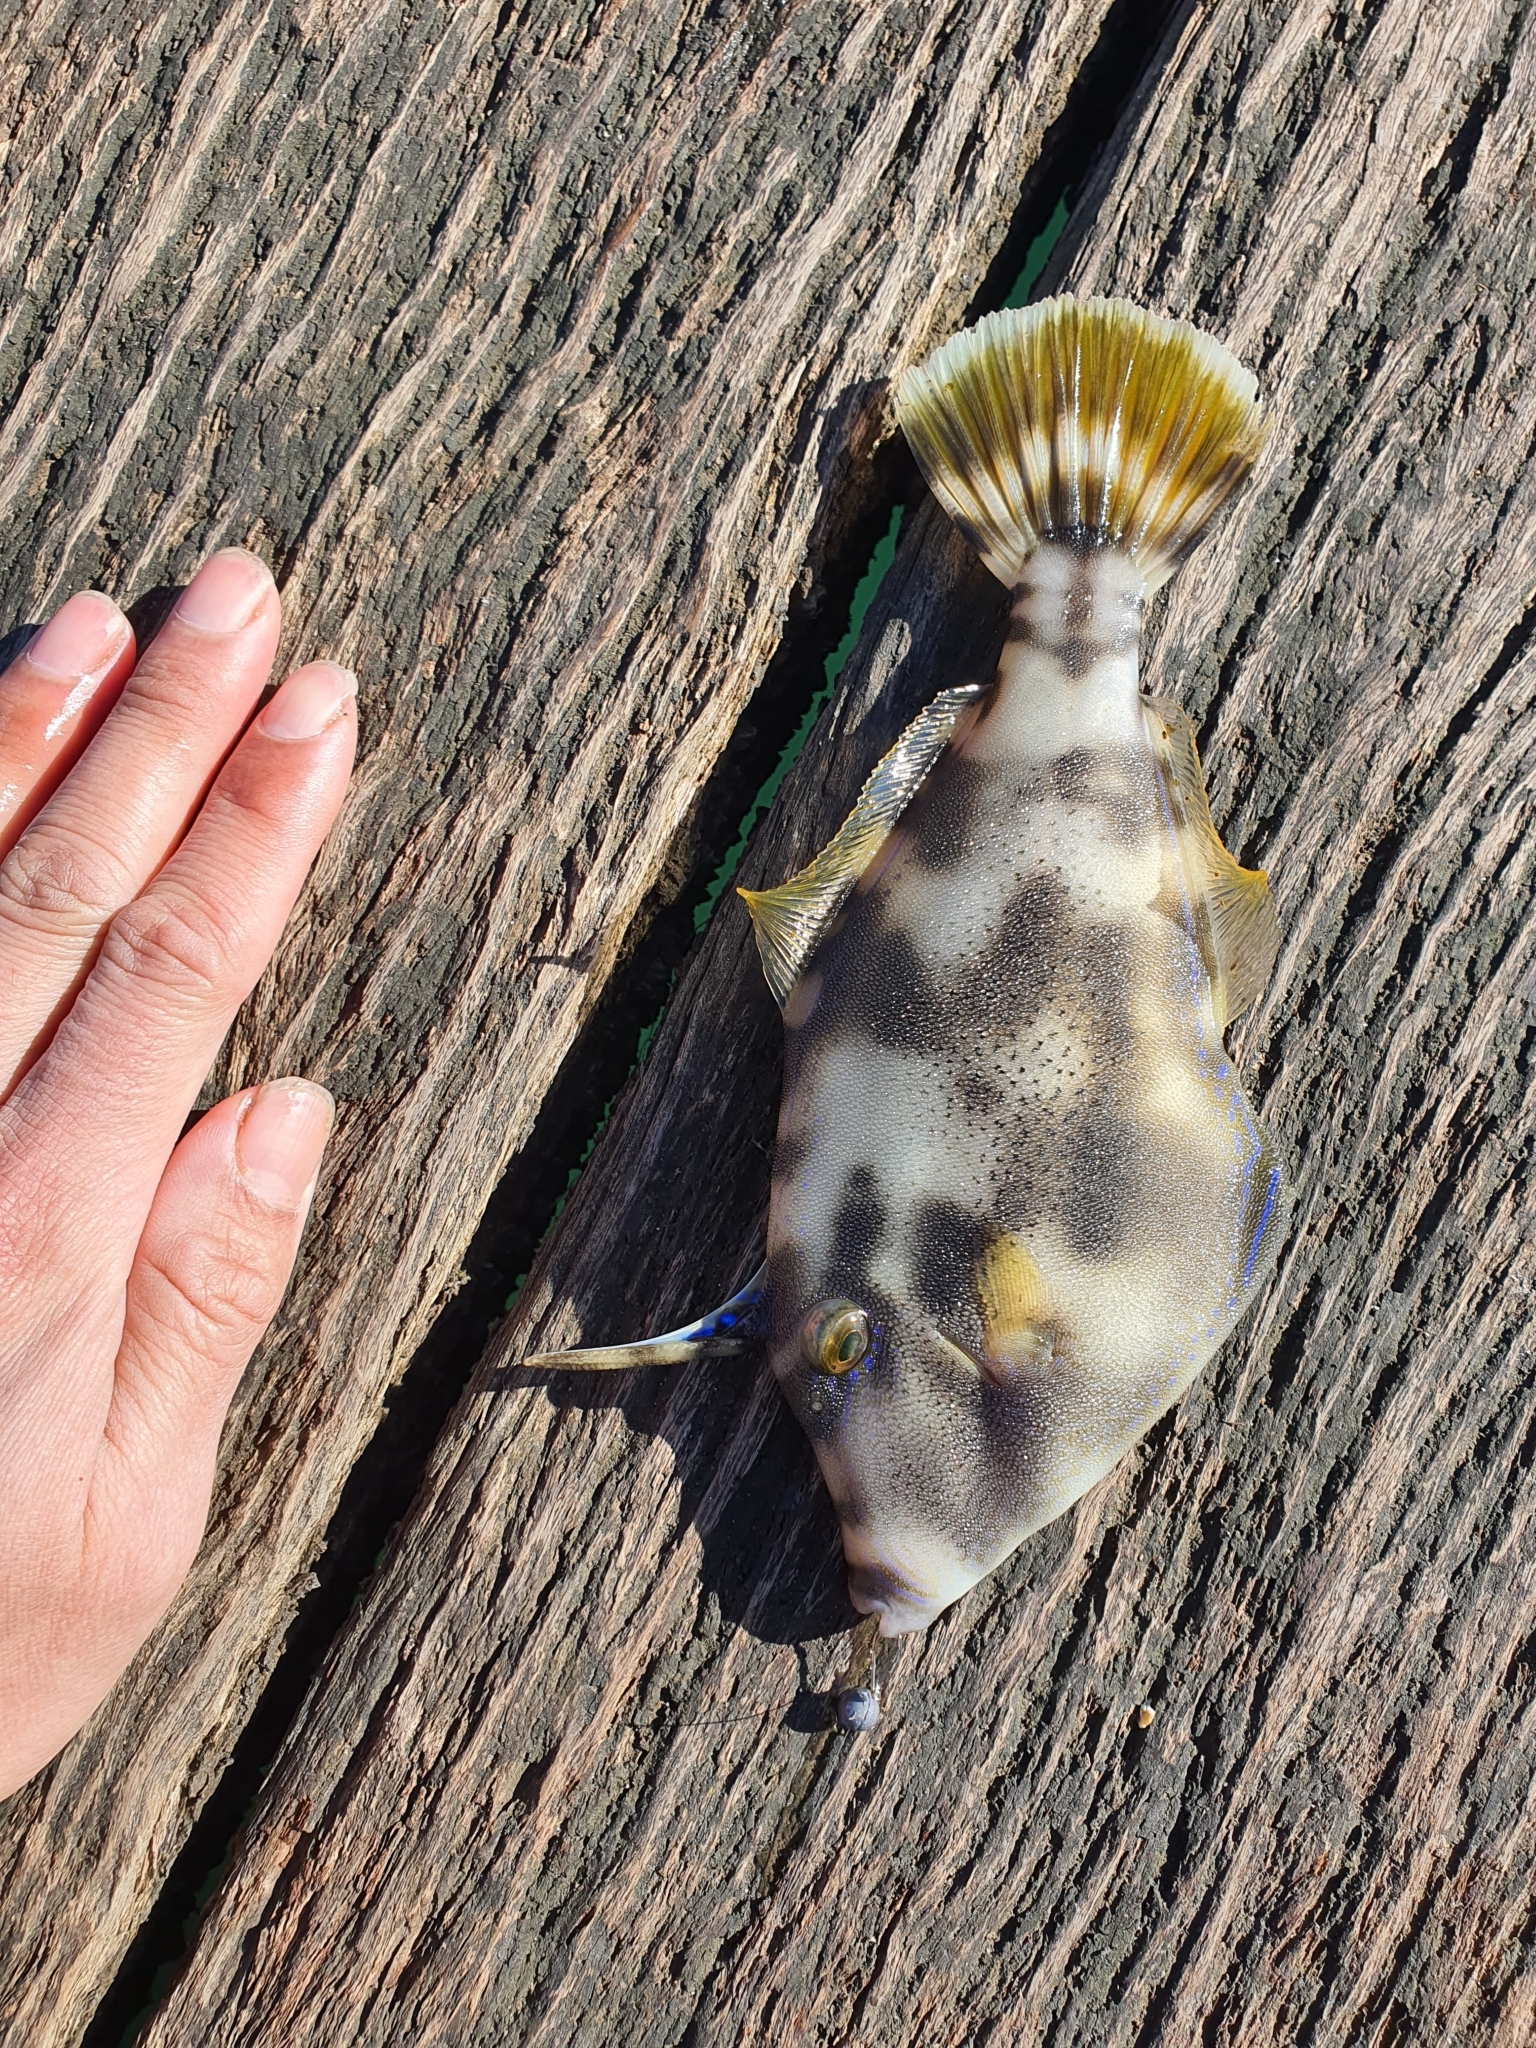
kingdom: Animalia
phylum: Chordata
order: Tetraodontiformes
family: Monacanthidae
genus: Meuschenia
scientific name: Meuschenia trachylepis
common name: Yellowfin leatherjacket
